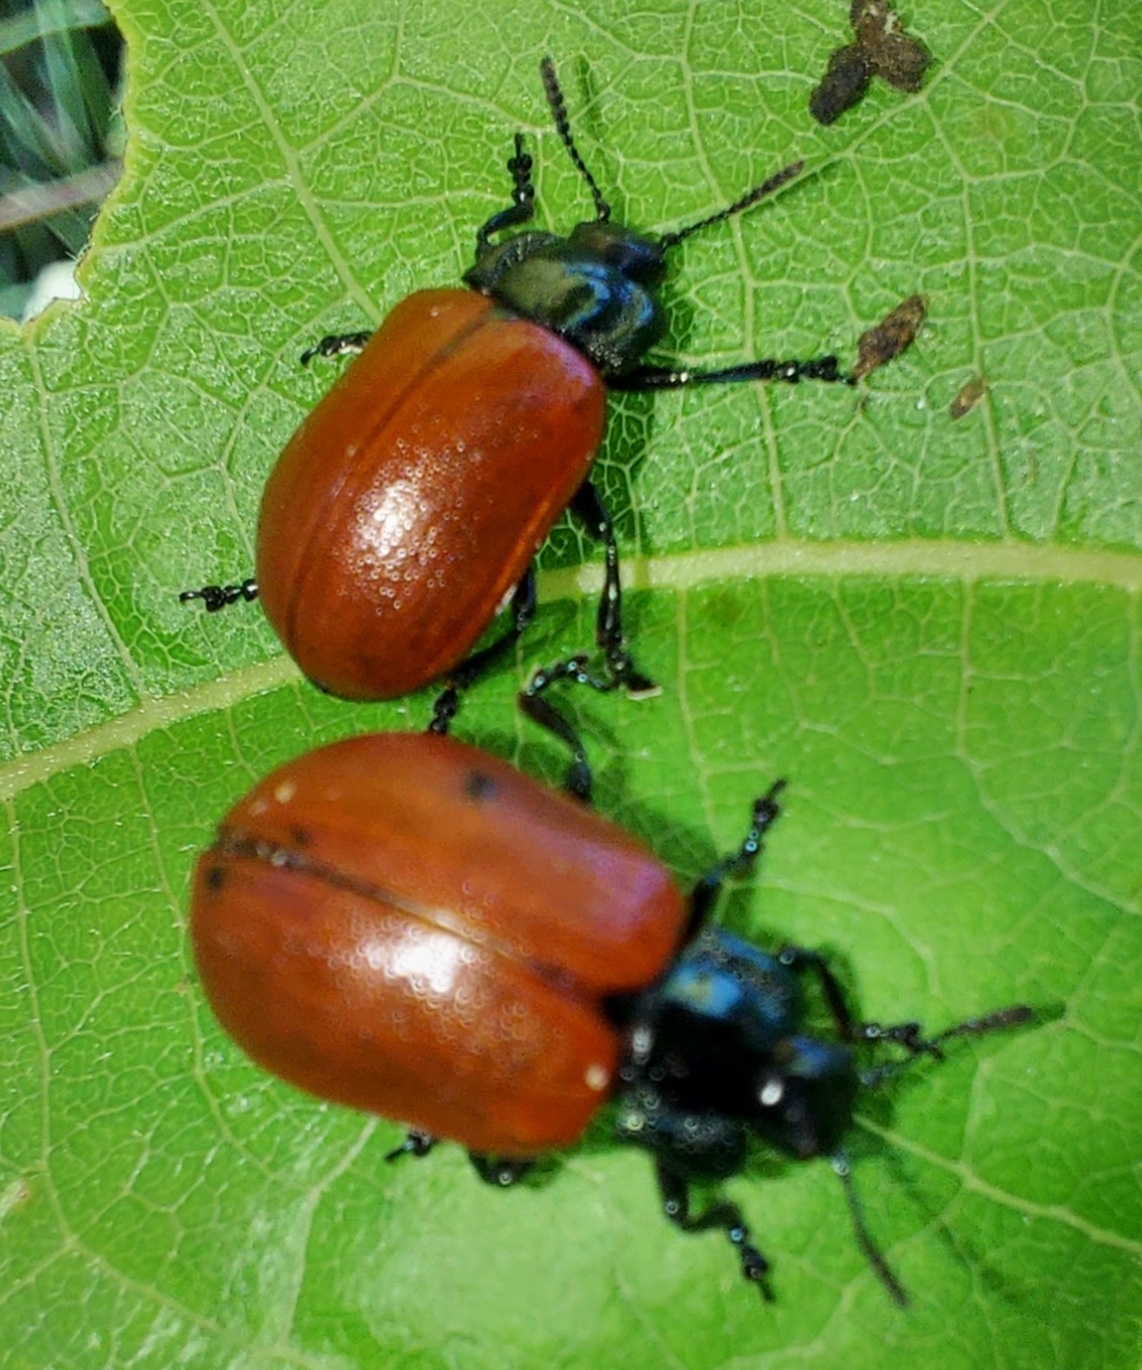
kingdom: Animalia
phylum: Arthropoda
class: Insecta
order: Coleoptera
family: Chrysomelidae
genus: Chrysomela
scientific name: Chrysomela populi
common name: Red poplar leaf beetle
